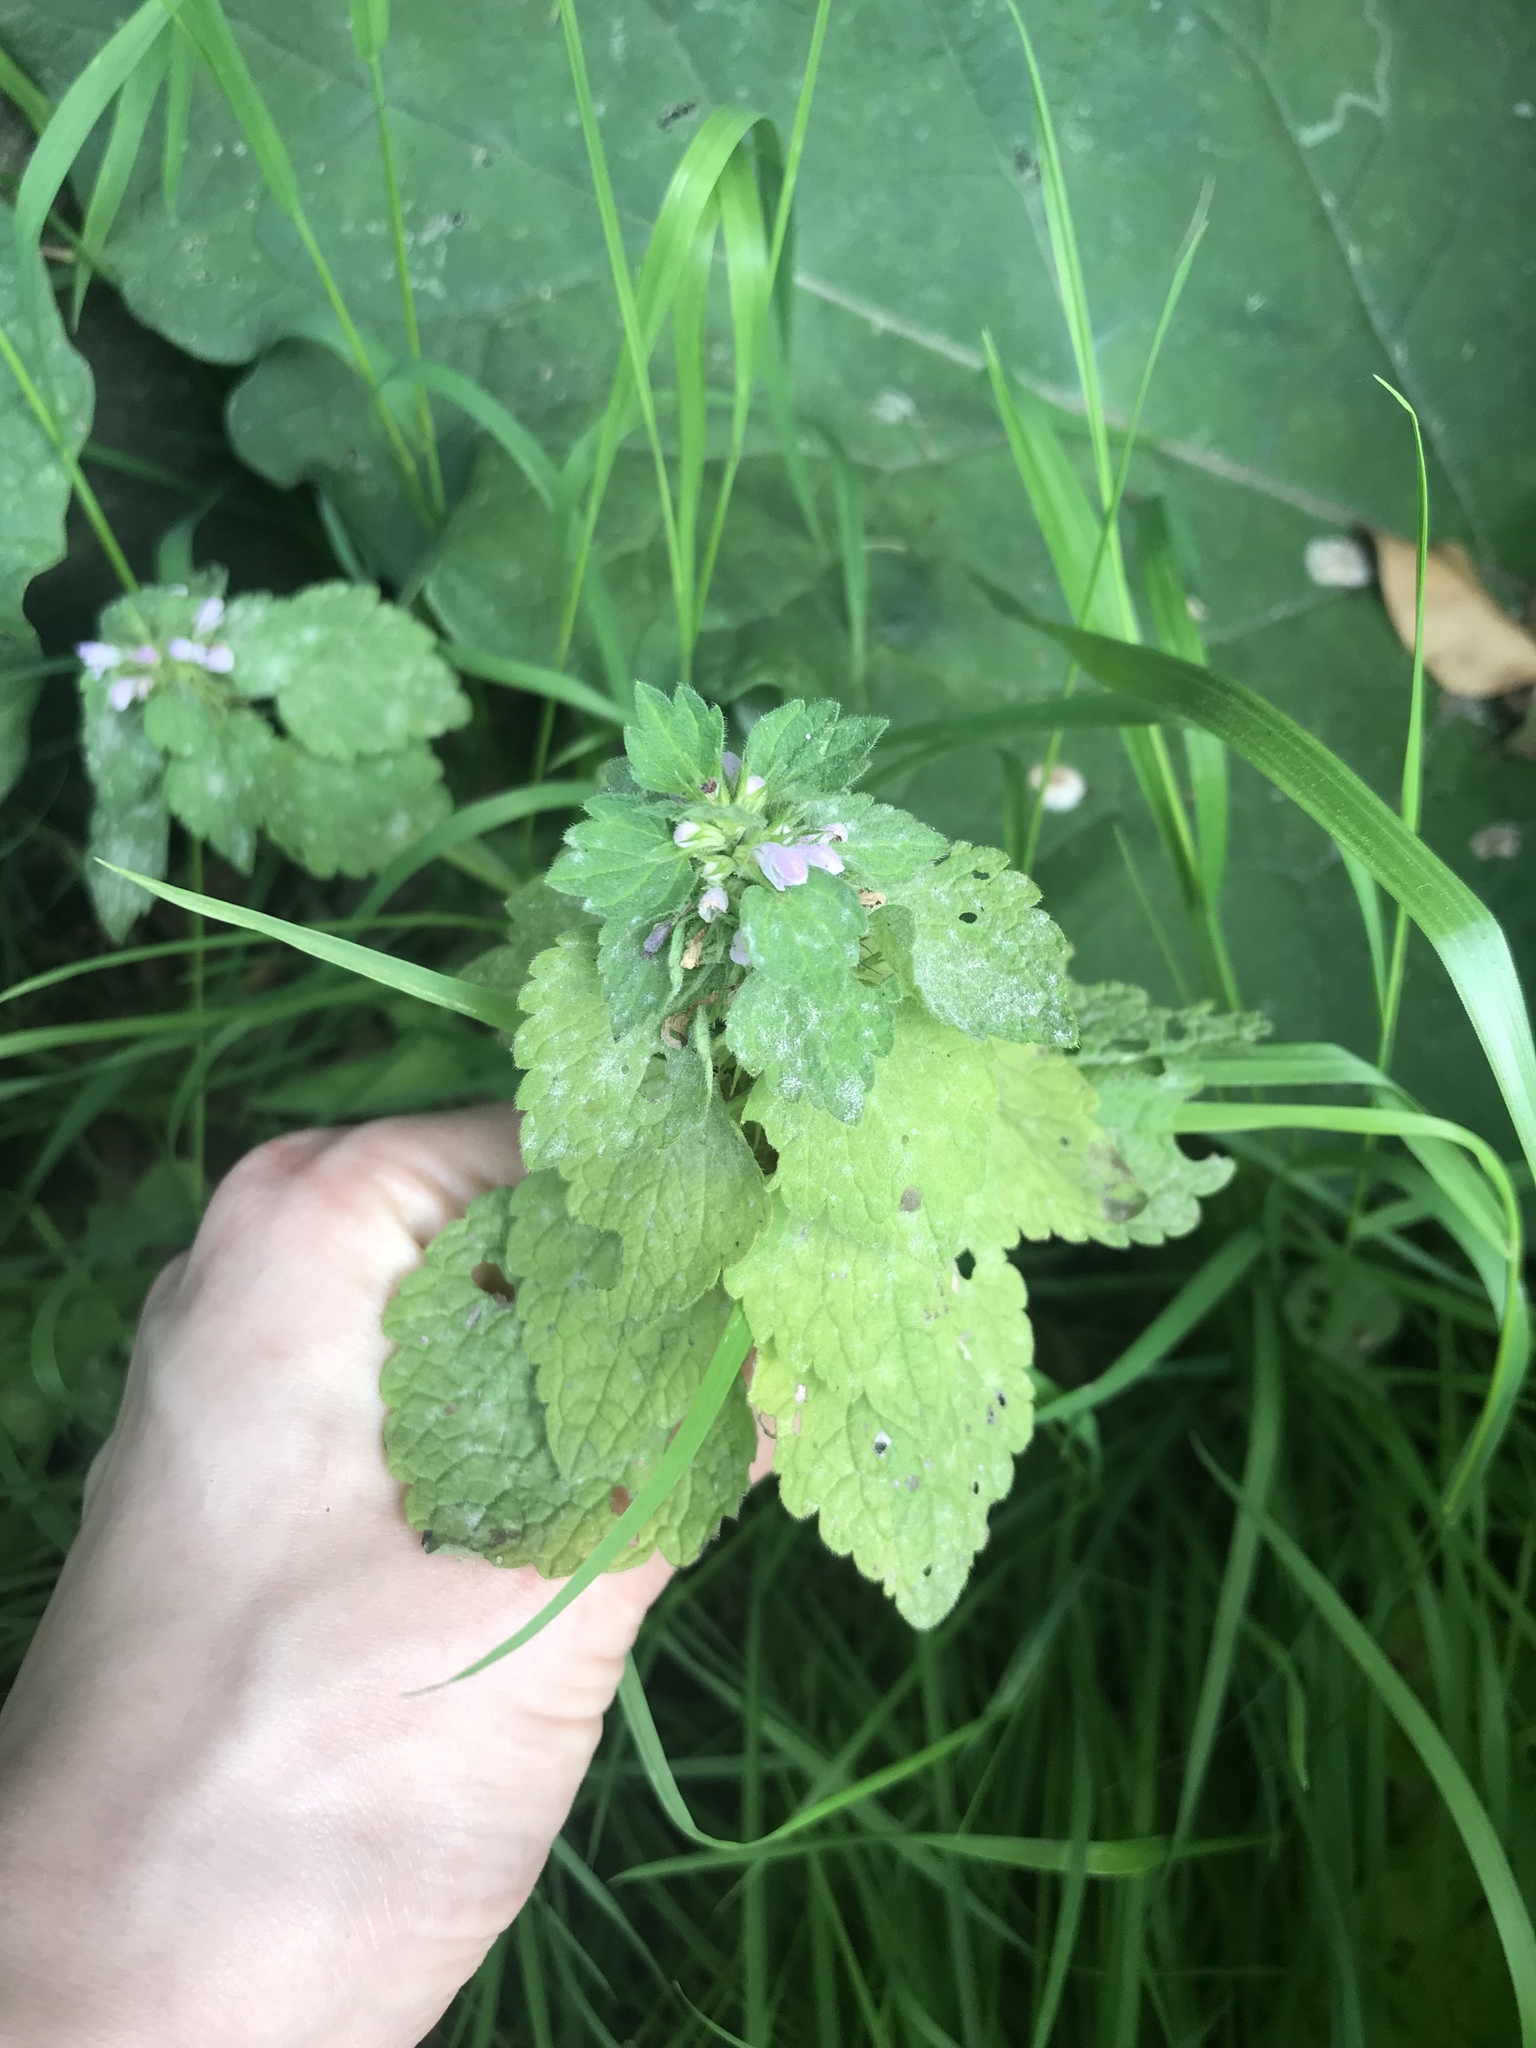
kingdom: Plantae
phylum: Tracheophyta
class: Magnoliopsida
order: Lamiales
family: Lamiaceae
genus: Lamium
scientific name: Lamium purpureum
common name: Red dead-nettle
